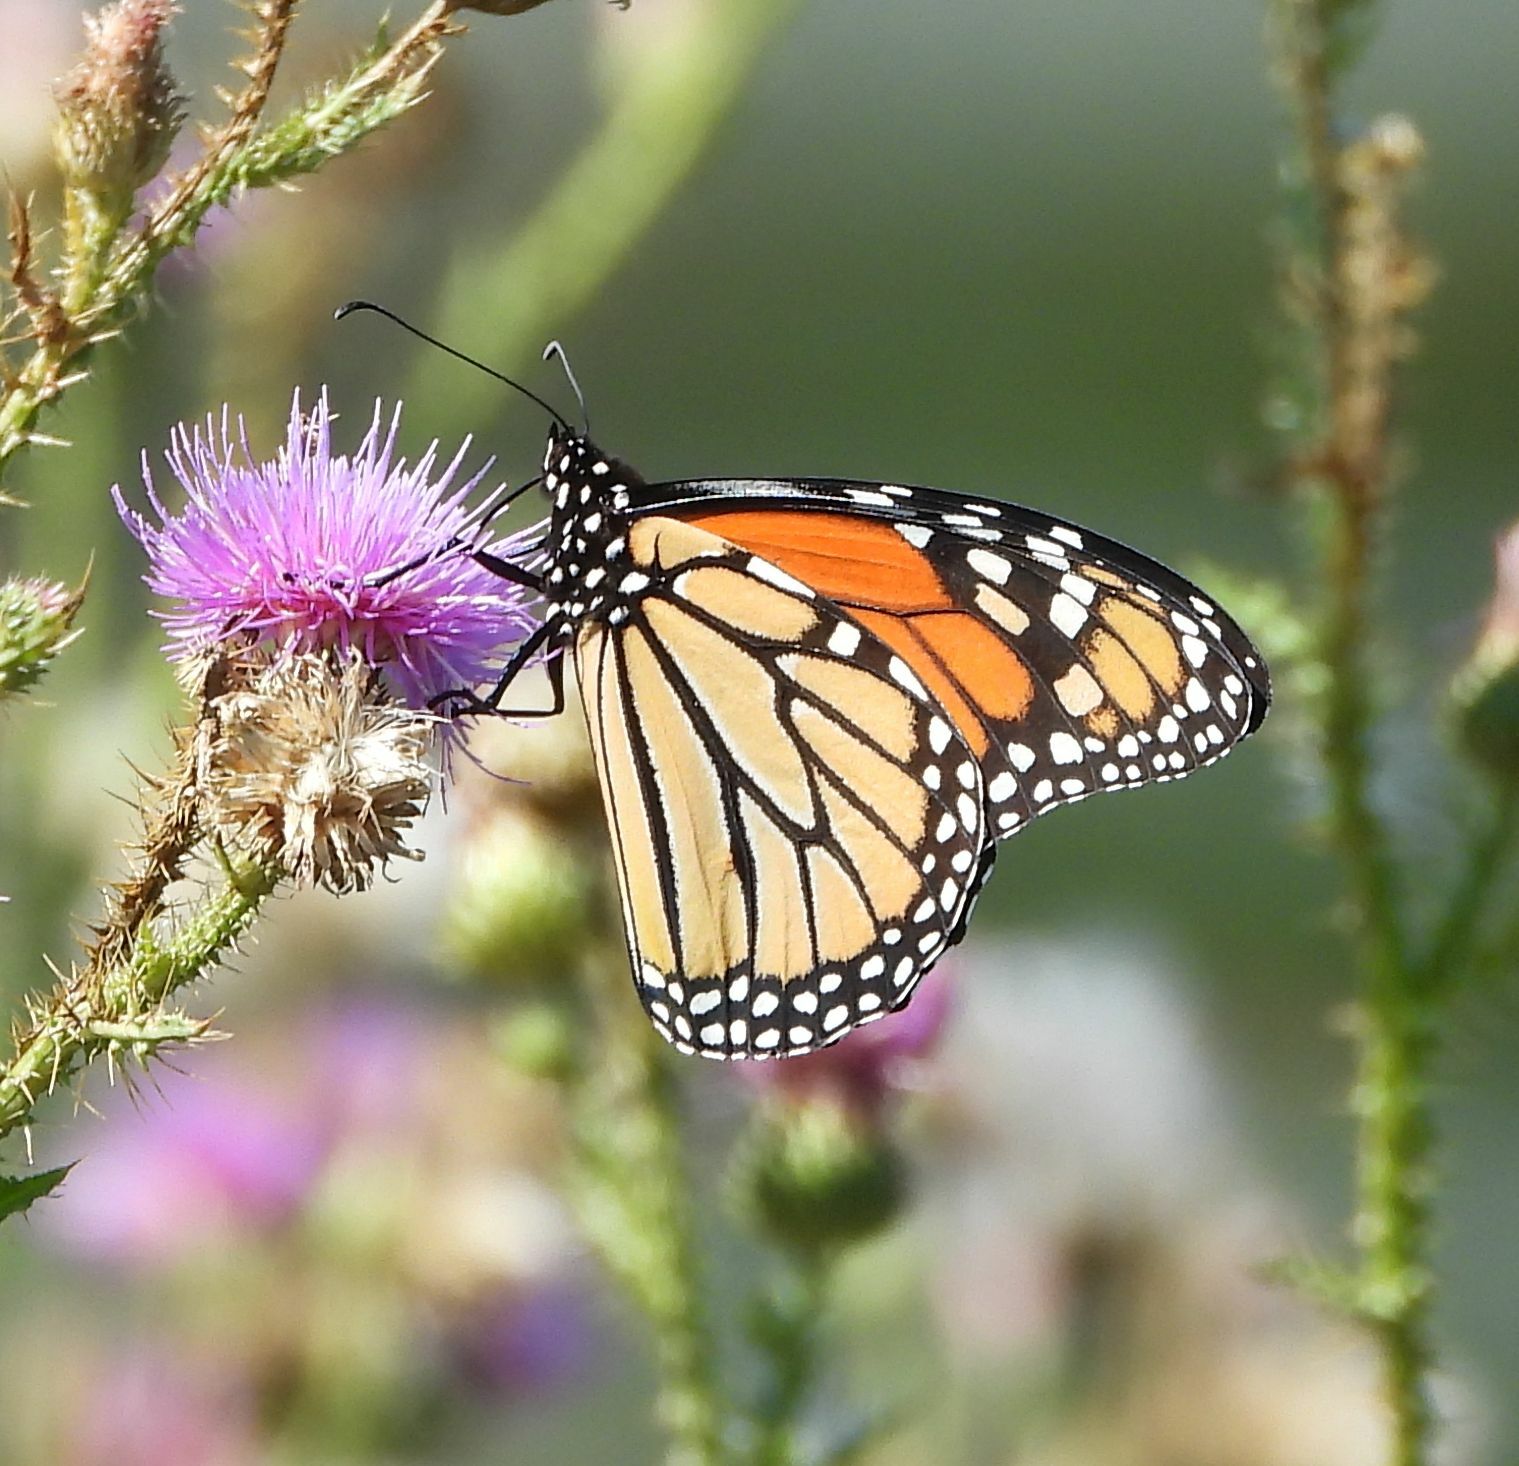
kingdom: Animalia
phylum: Arthropoda
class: Insecta
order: Lepidoptera
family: Nymphalidae
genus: Danaus
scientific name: Danaus plexippus
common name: Monarch
